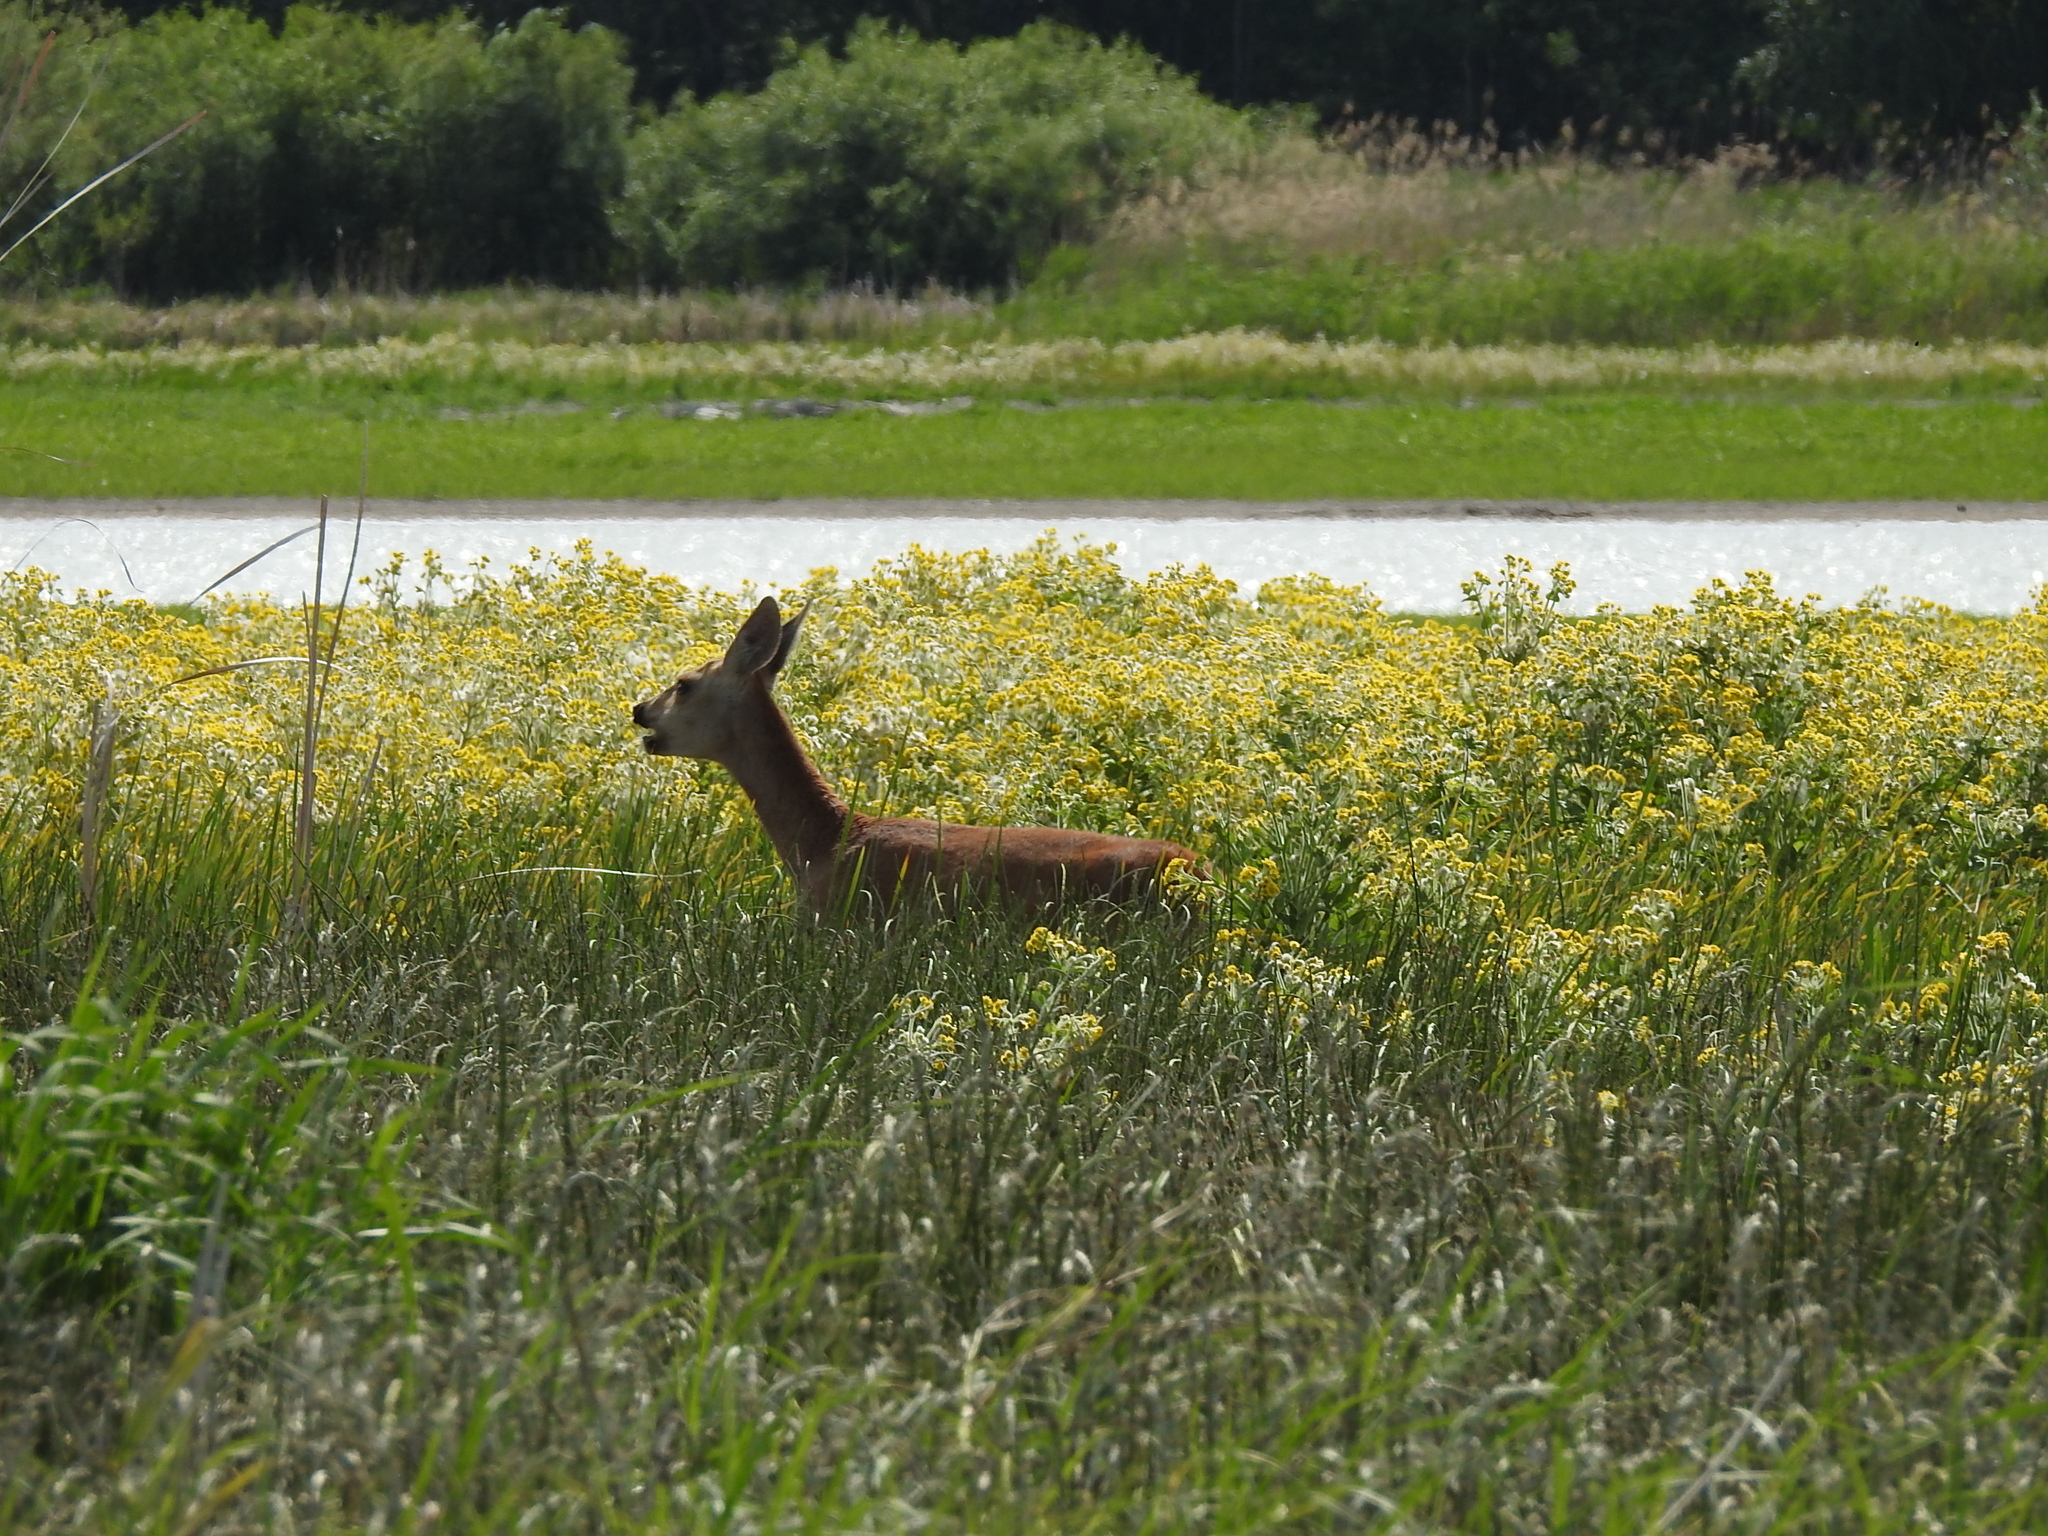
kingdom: Animalia
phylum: Chordata
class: Mammalia
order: Artiodactyla
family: Cervidae
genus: Capreolus
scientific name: Capreolus pygargus
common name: Siberian roe
